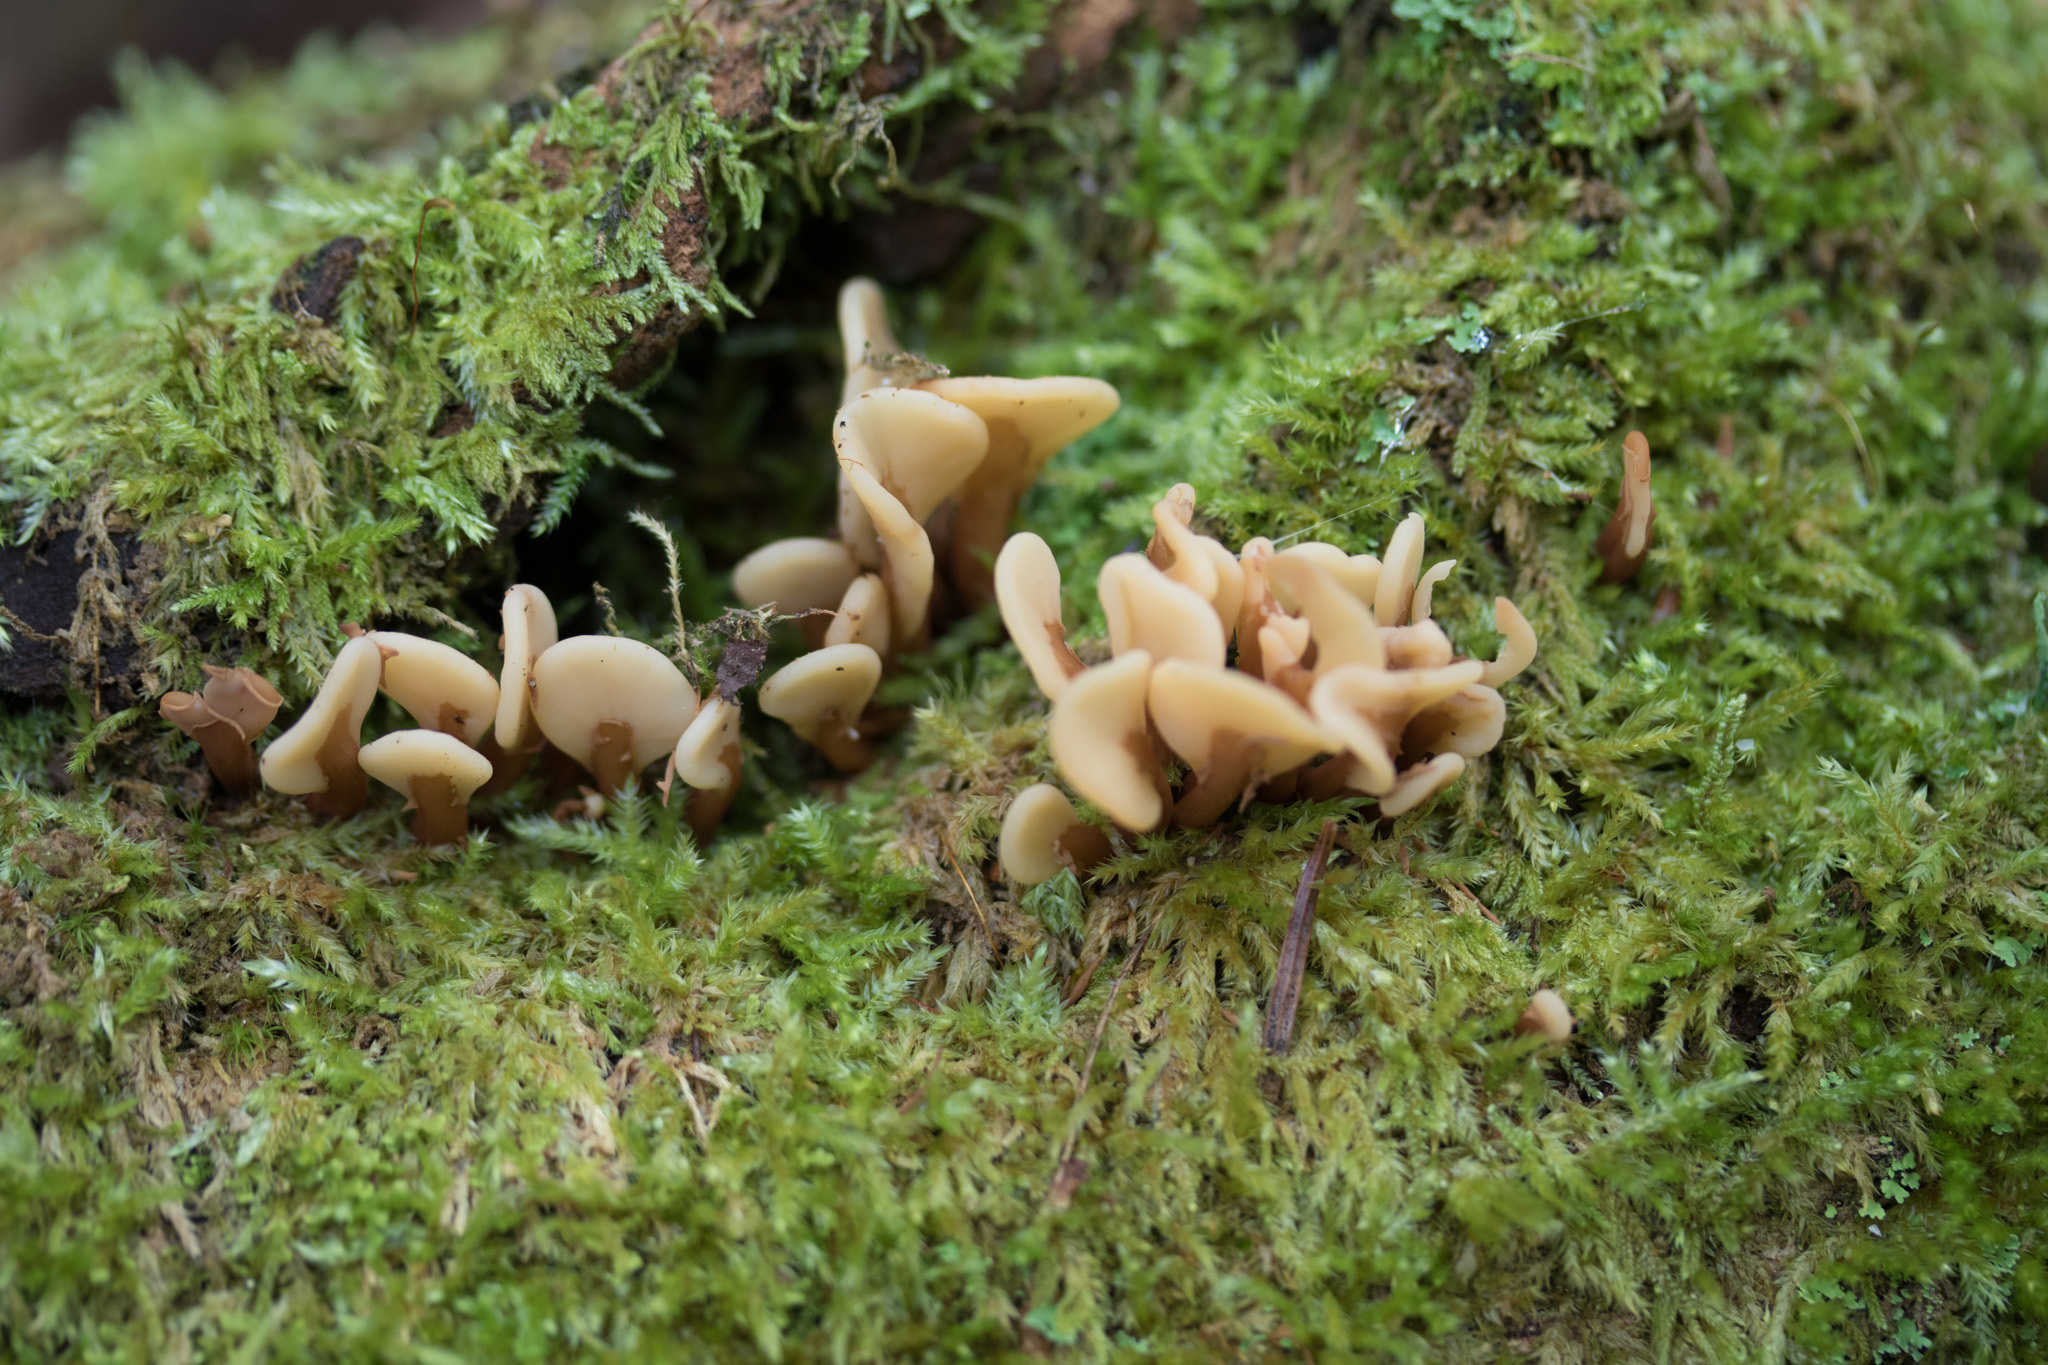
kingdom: Fungi
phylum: Ascomycota
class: Leotiomycetes
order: Rhytismatales
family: Cudoniaceae
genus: Spathulariopsis
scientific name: Spathulariopsis velutipes
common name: Velvet-foot fairy fan
